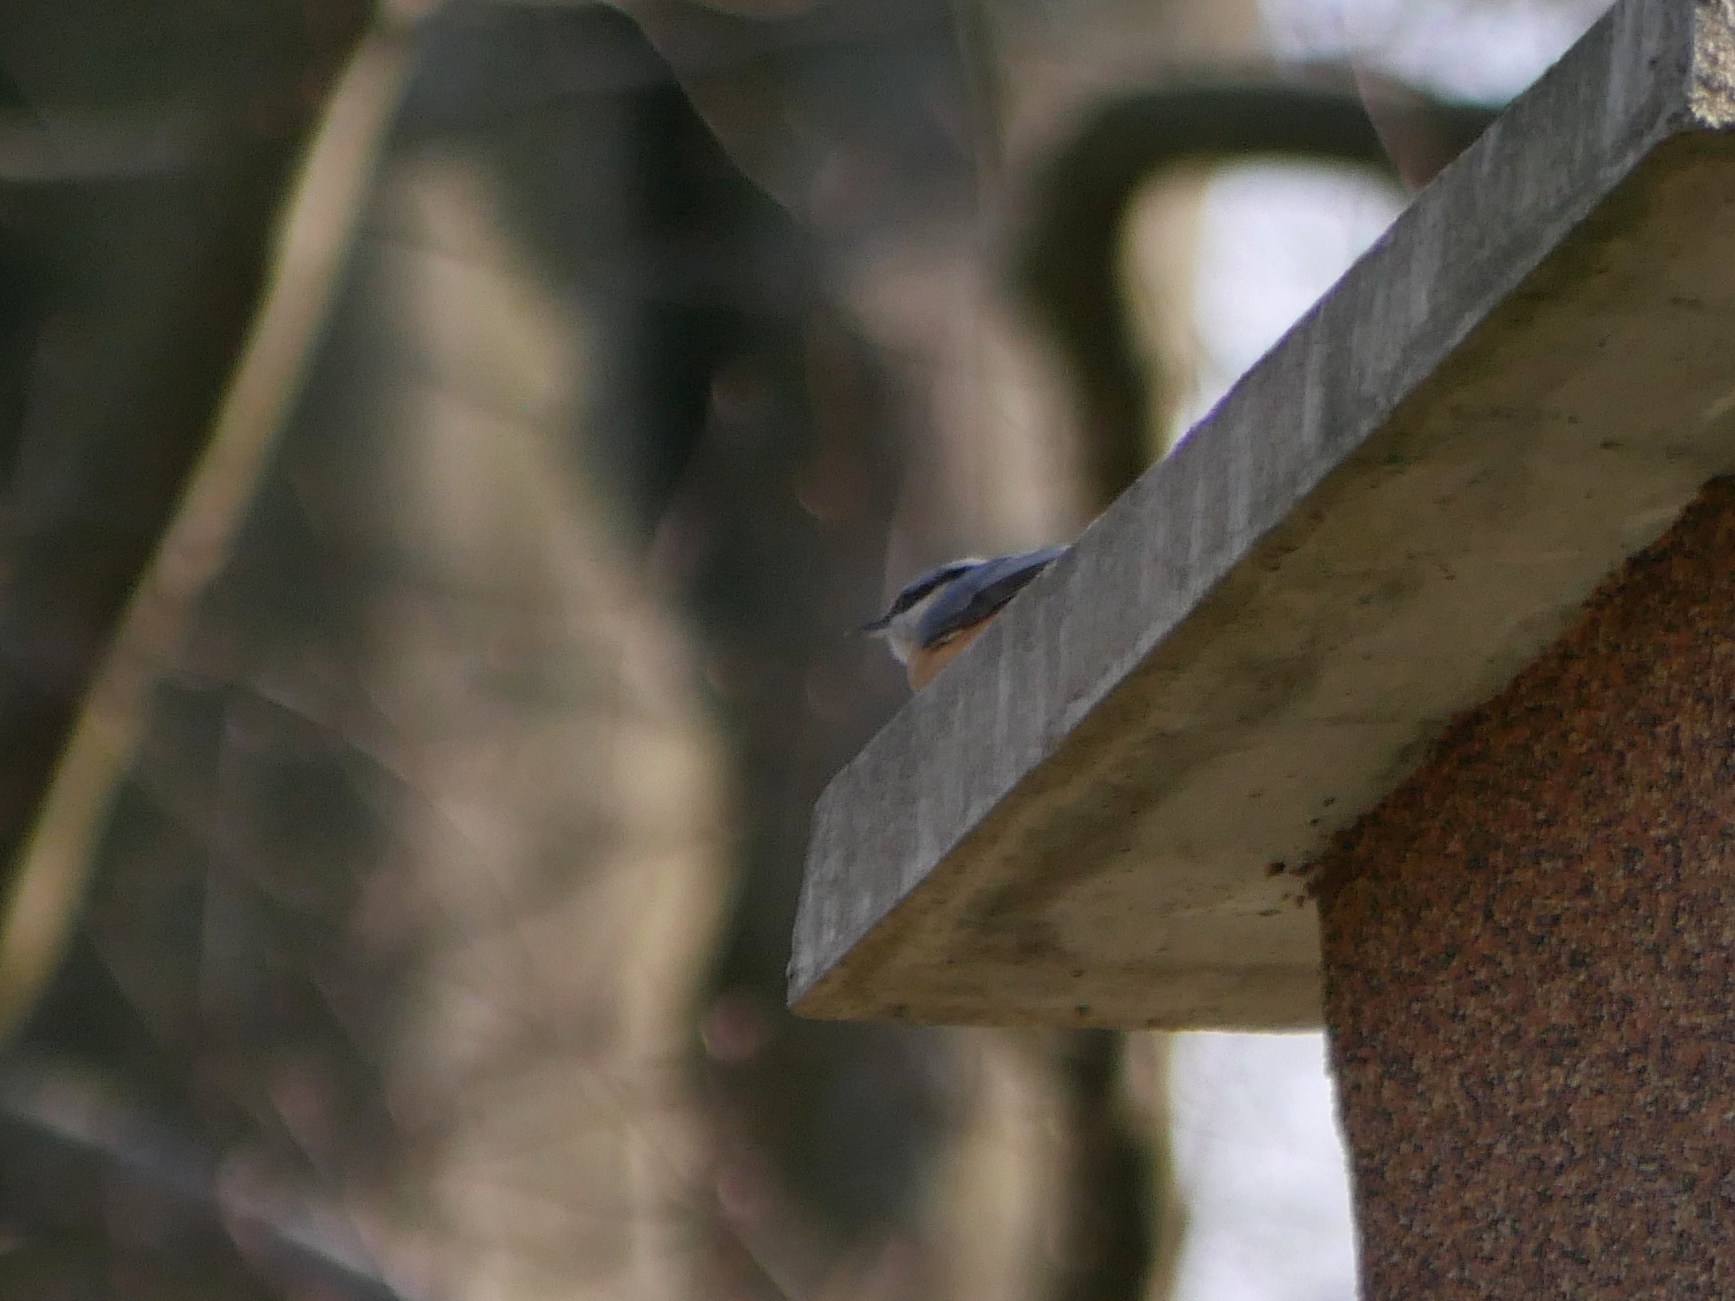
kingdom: Animalia
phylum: Chordata
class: Aves
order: Passeriformes
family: Sittidae
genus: Sitta
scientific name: Sitta europaea
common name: Eurasian nuthatch
